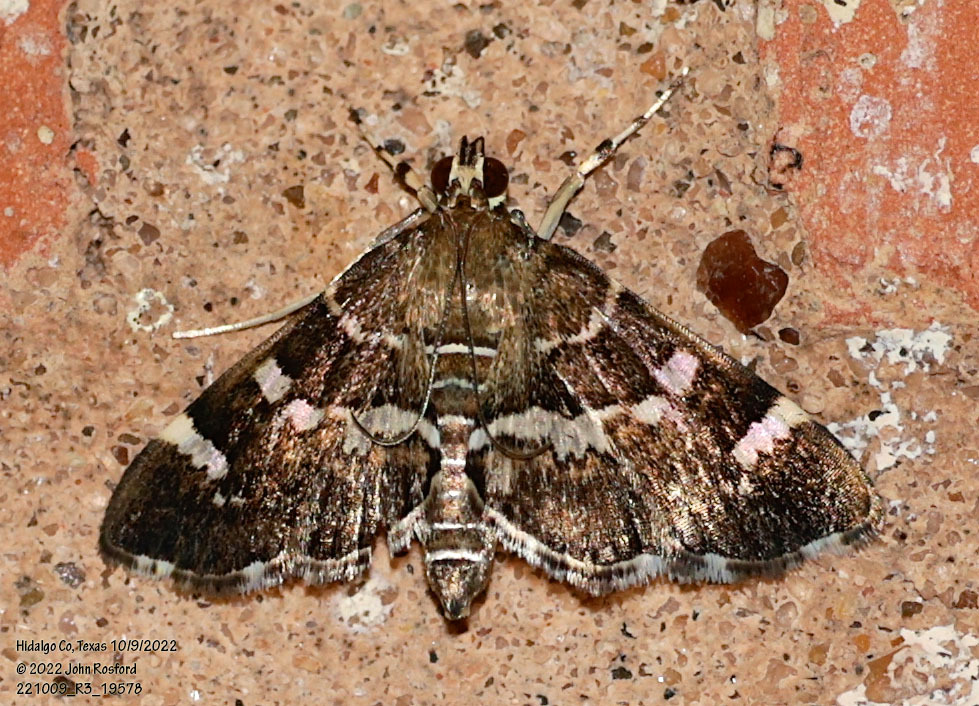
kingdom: Animalia
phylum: Arthropoda
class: Insecta
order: Lepidoptera
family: Crambidae
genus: Hymenia
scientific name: Hymenia perspectalis
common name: Spotted beet webworm
